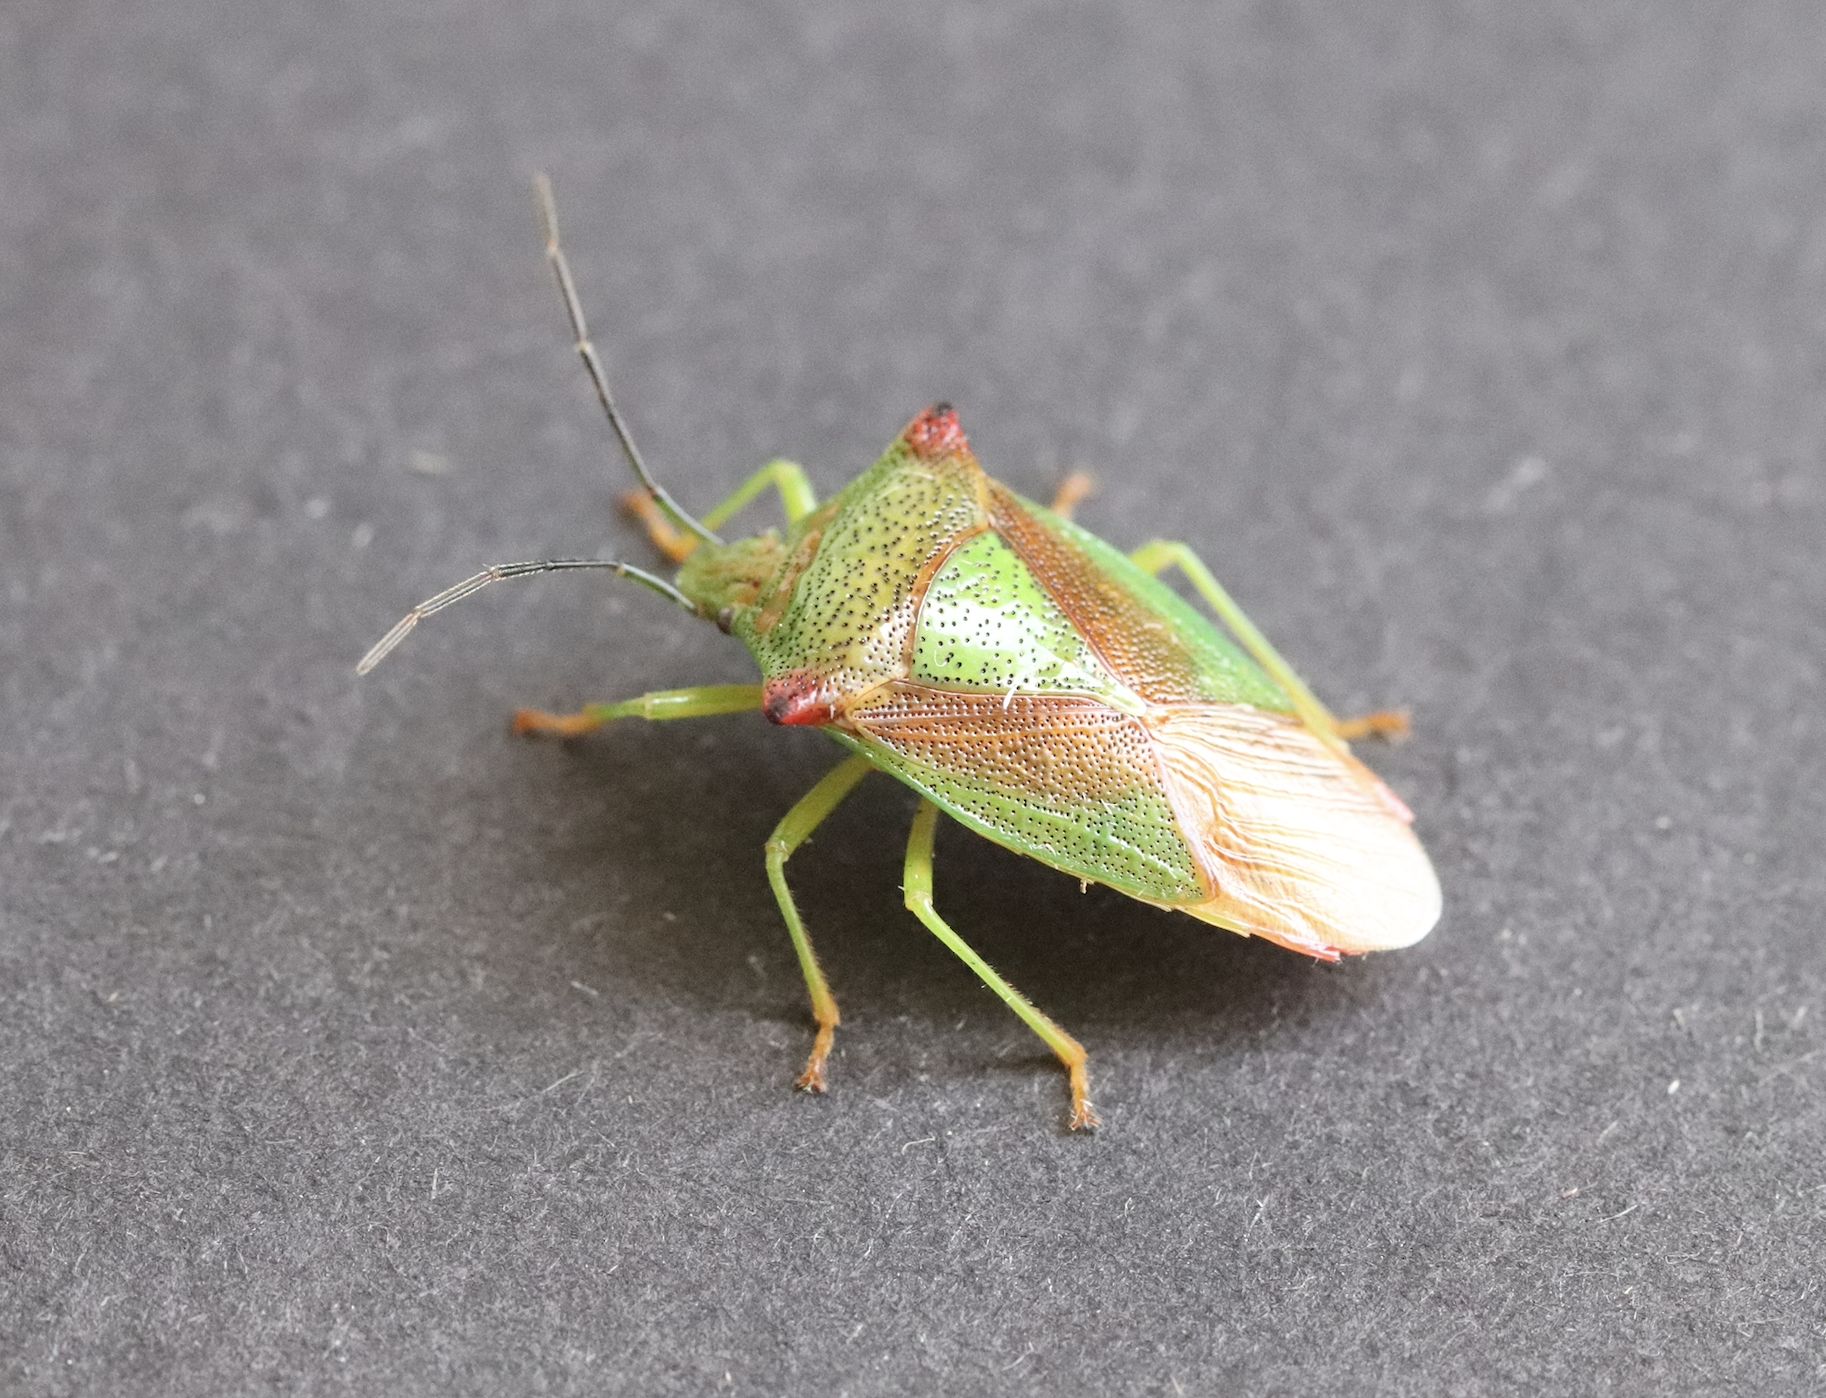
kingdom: Animalia
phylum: Arthropoda
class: Insecta
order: Hemiptera
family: Acanthosomatidae
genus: Acanthosoma
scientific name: Acanthosoma haemorrhoidale
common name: Hawthorn shieldbug
